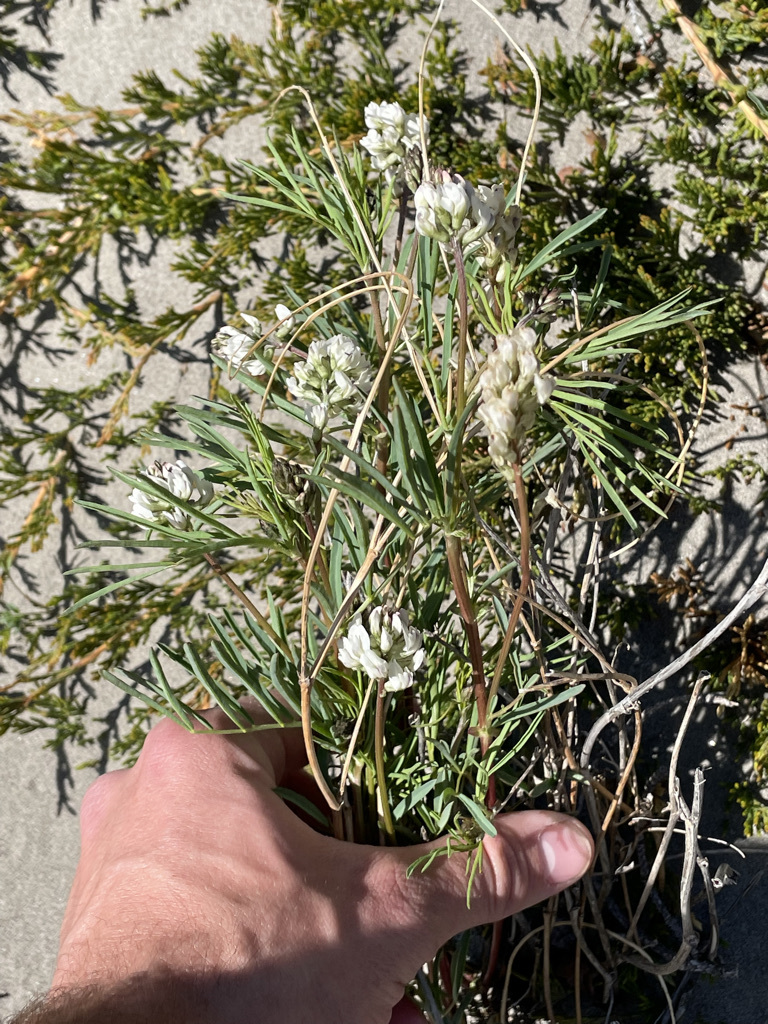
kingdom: Plantae
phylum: Tracheophyta
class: Magnoliopsida
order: Fabales
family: Fabaceae
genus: Astragalus
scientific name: Astragalus australis
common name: Indian milk-vetch
